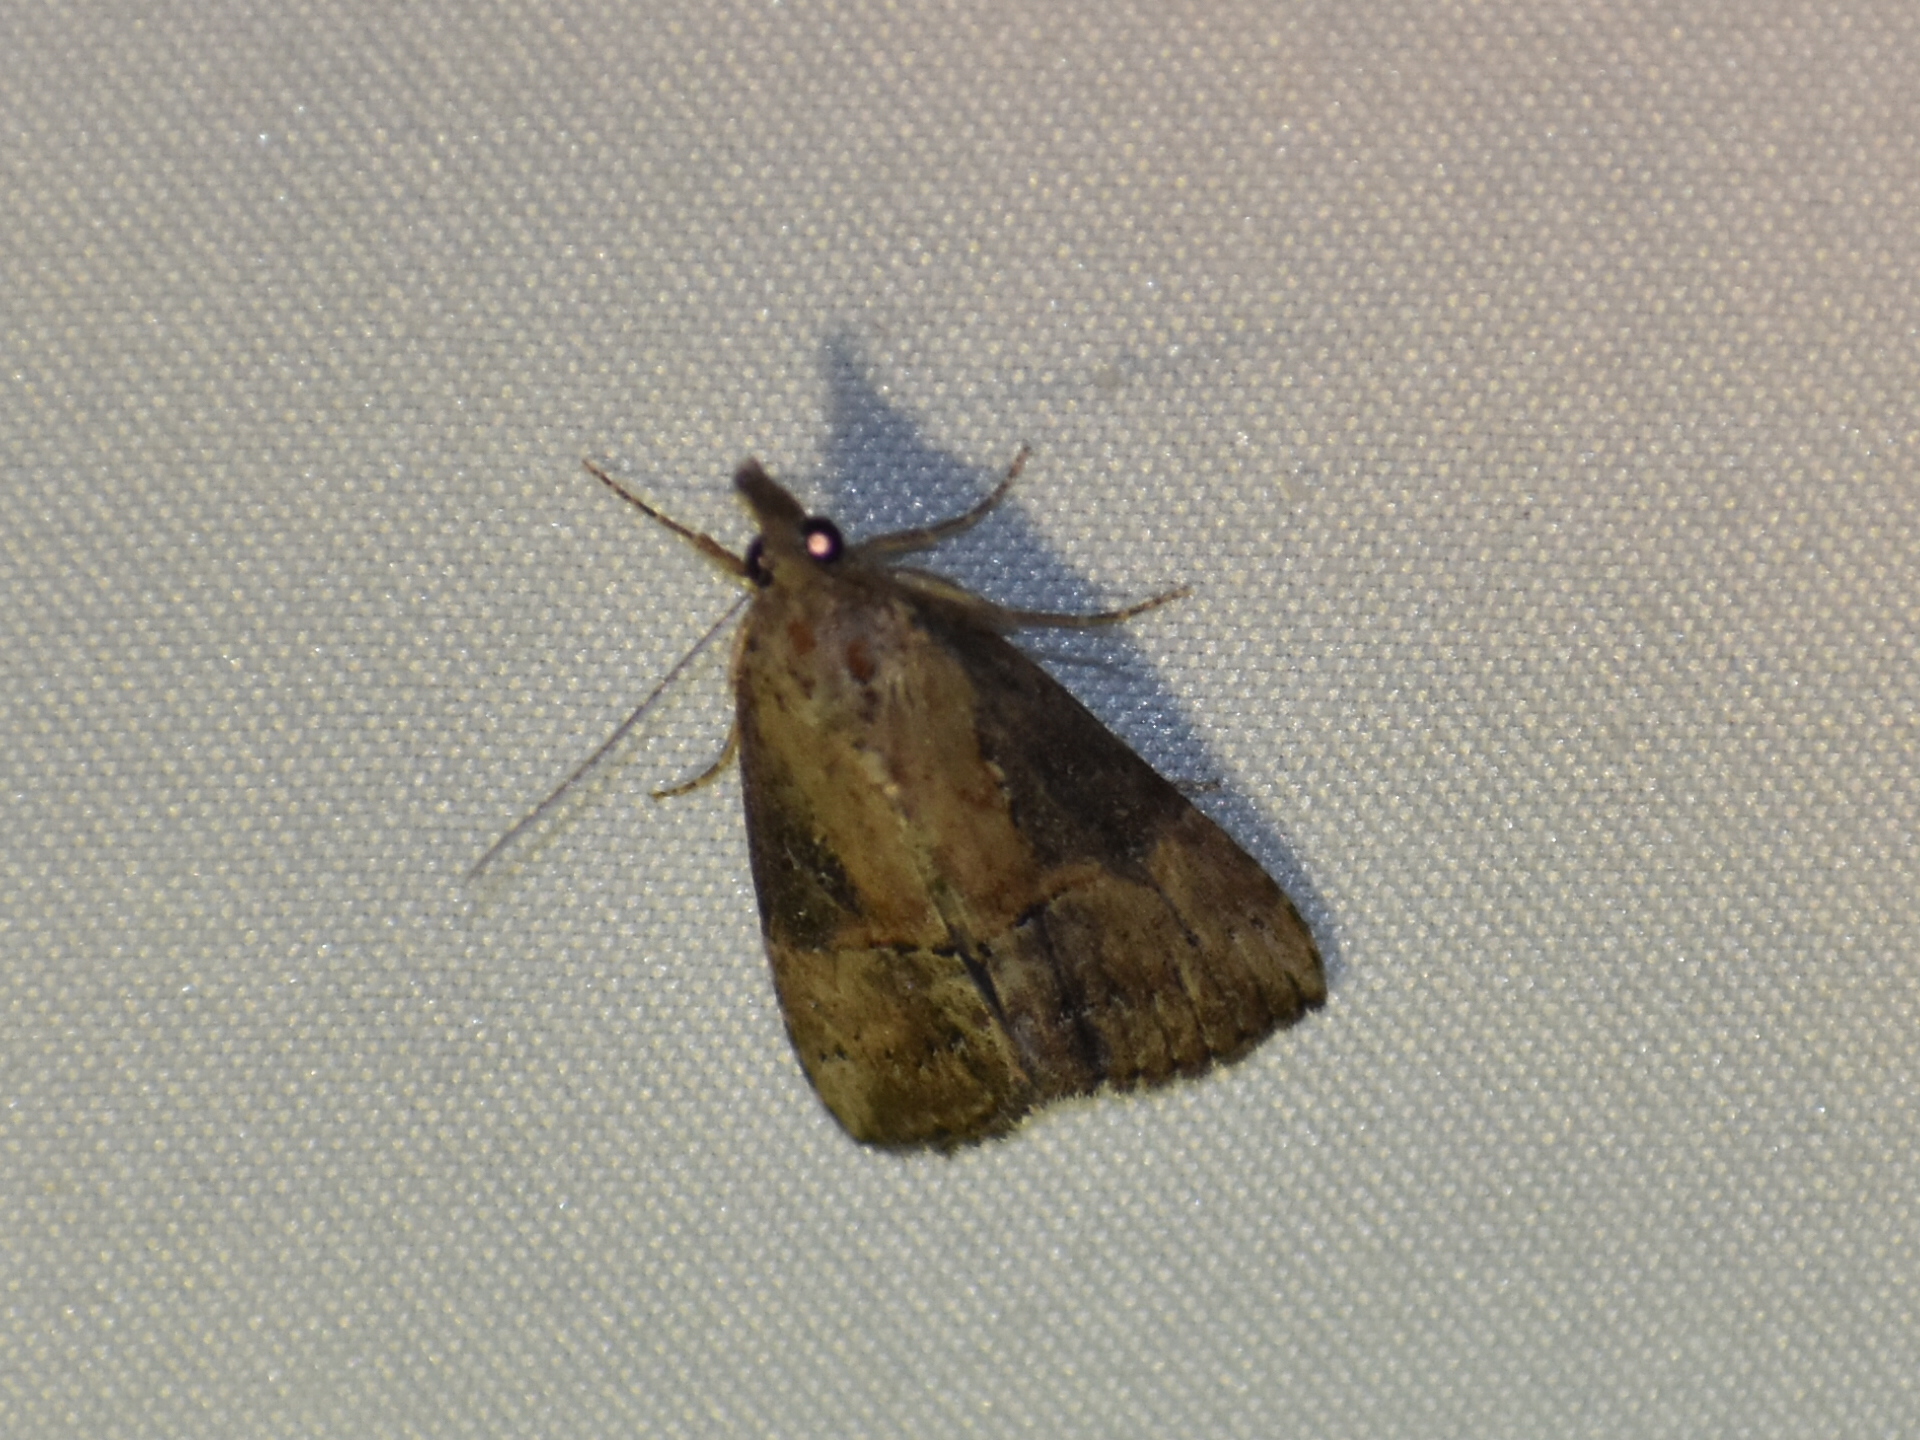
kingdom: Animalia
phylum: Arthropoda
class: Insecta
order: Lepidoptera
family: Erebidae
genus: Hypena
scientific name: Hypena scabra
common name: Green cloverworm
